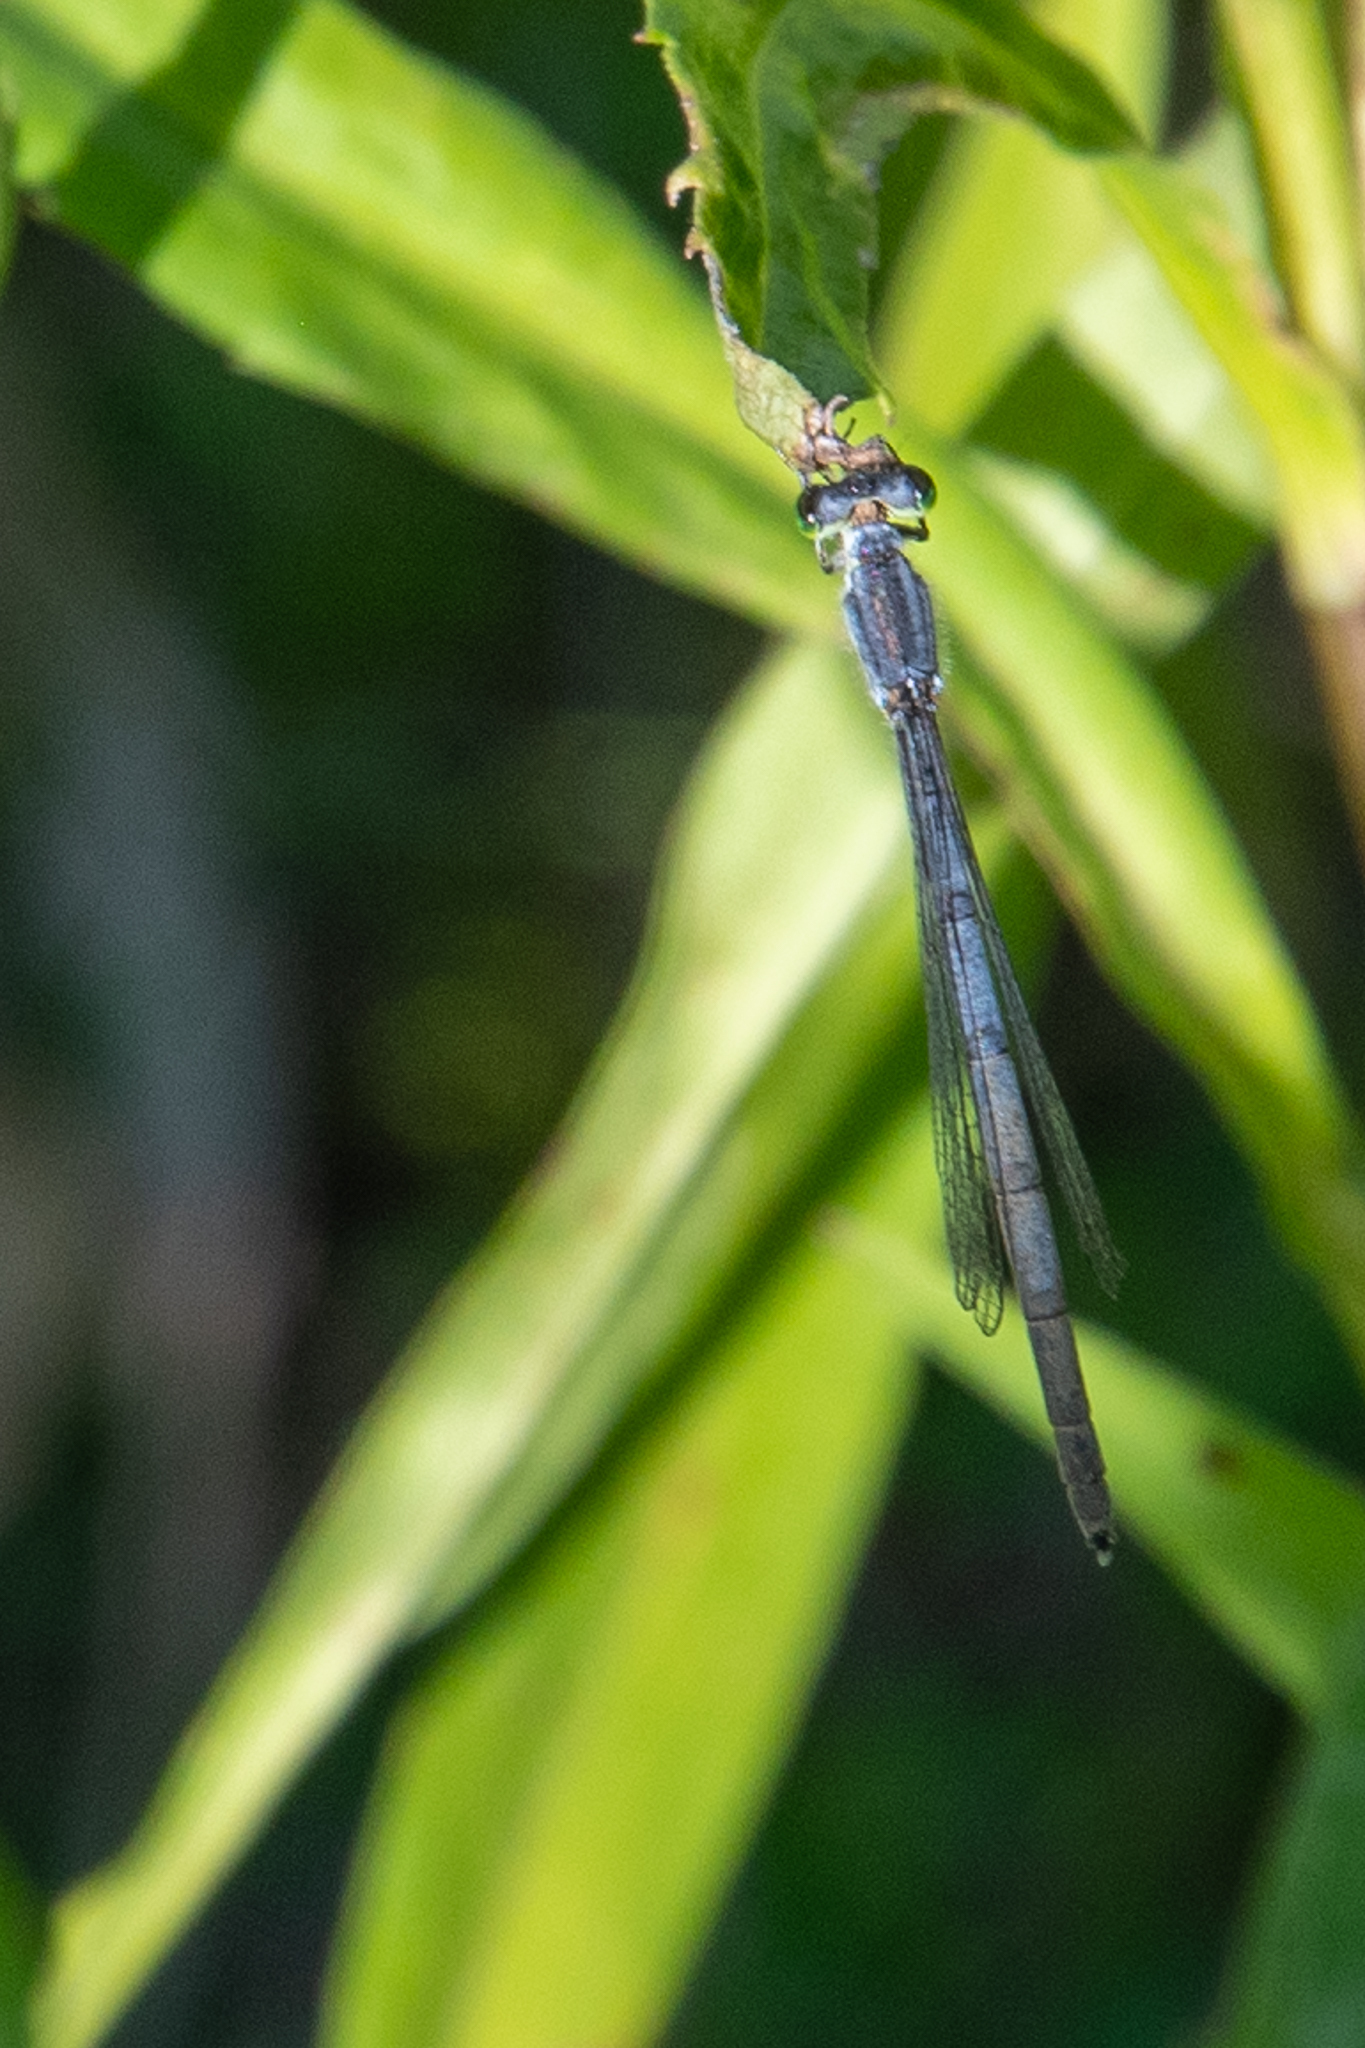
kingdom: Animalia
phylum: Arthropoda
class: Insecta
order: Odonata
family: Coenagrionidae
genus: Ischnura
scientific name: Ischnura verticalis
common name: Eastern forktail
